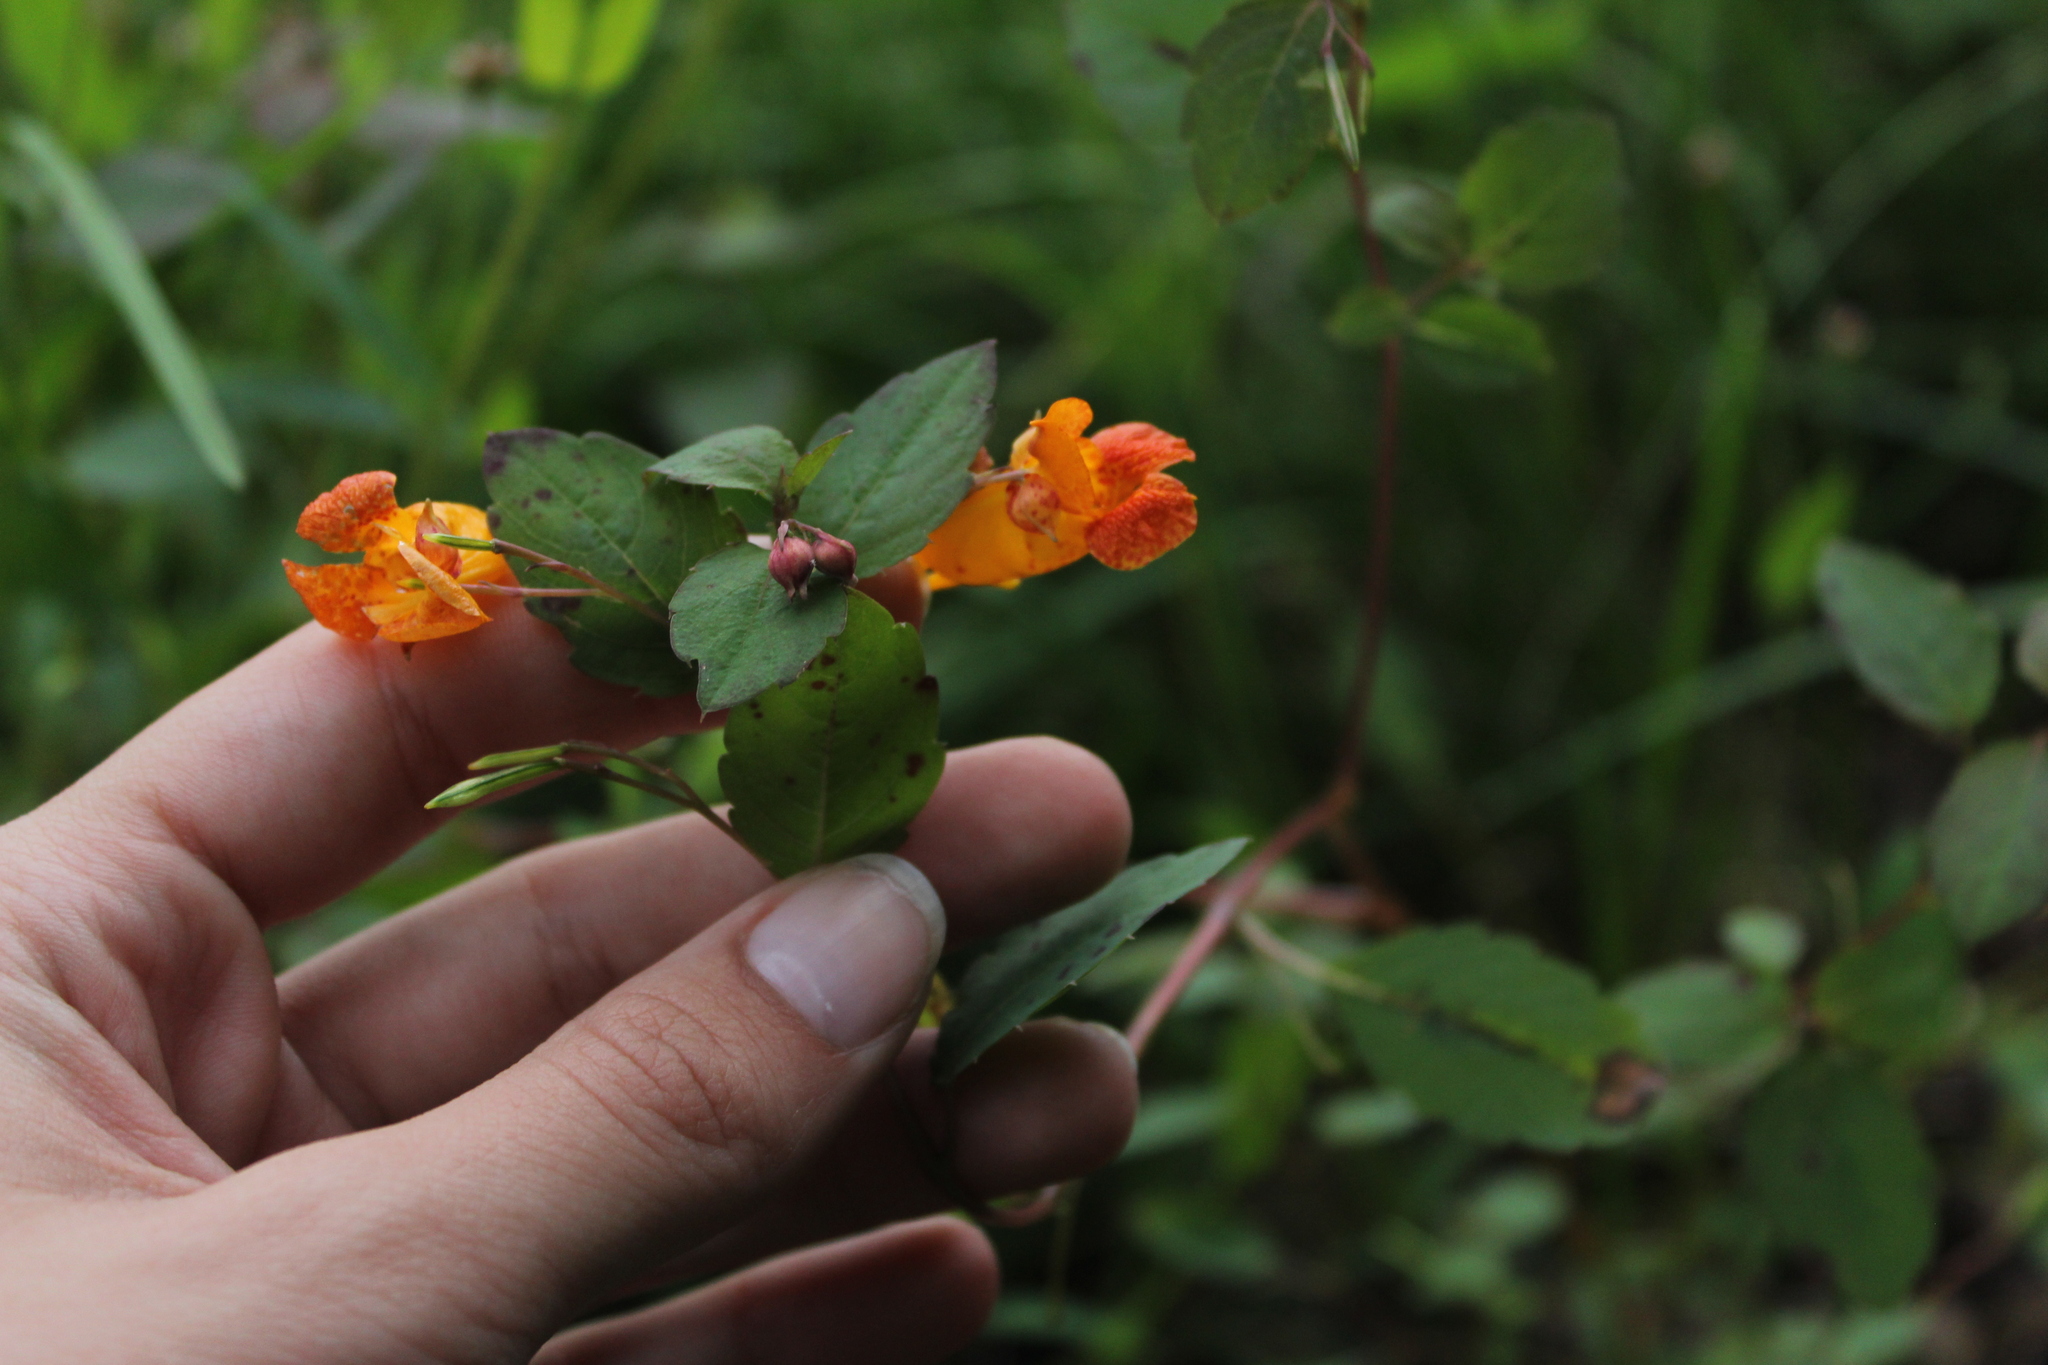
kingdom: Plantae
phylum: Tracheophyta
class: Magnoliopsida
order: Ericales
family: Balsaminaceae
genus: Impatiens
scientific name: Impatiens capensis
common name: Orange balsam
